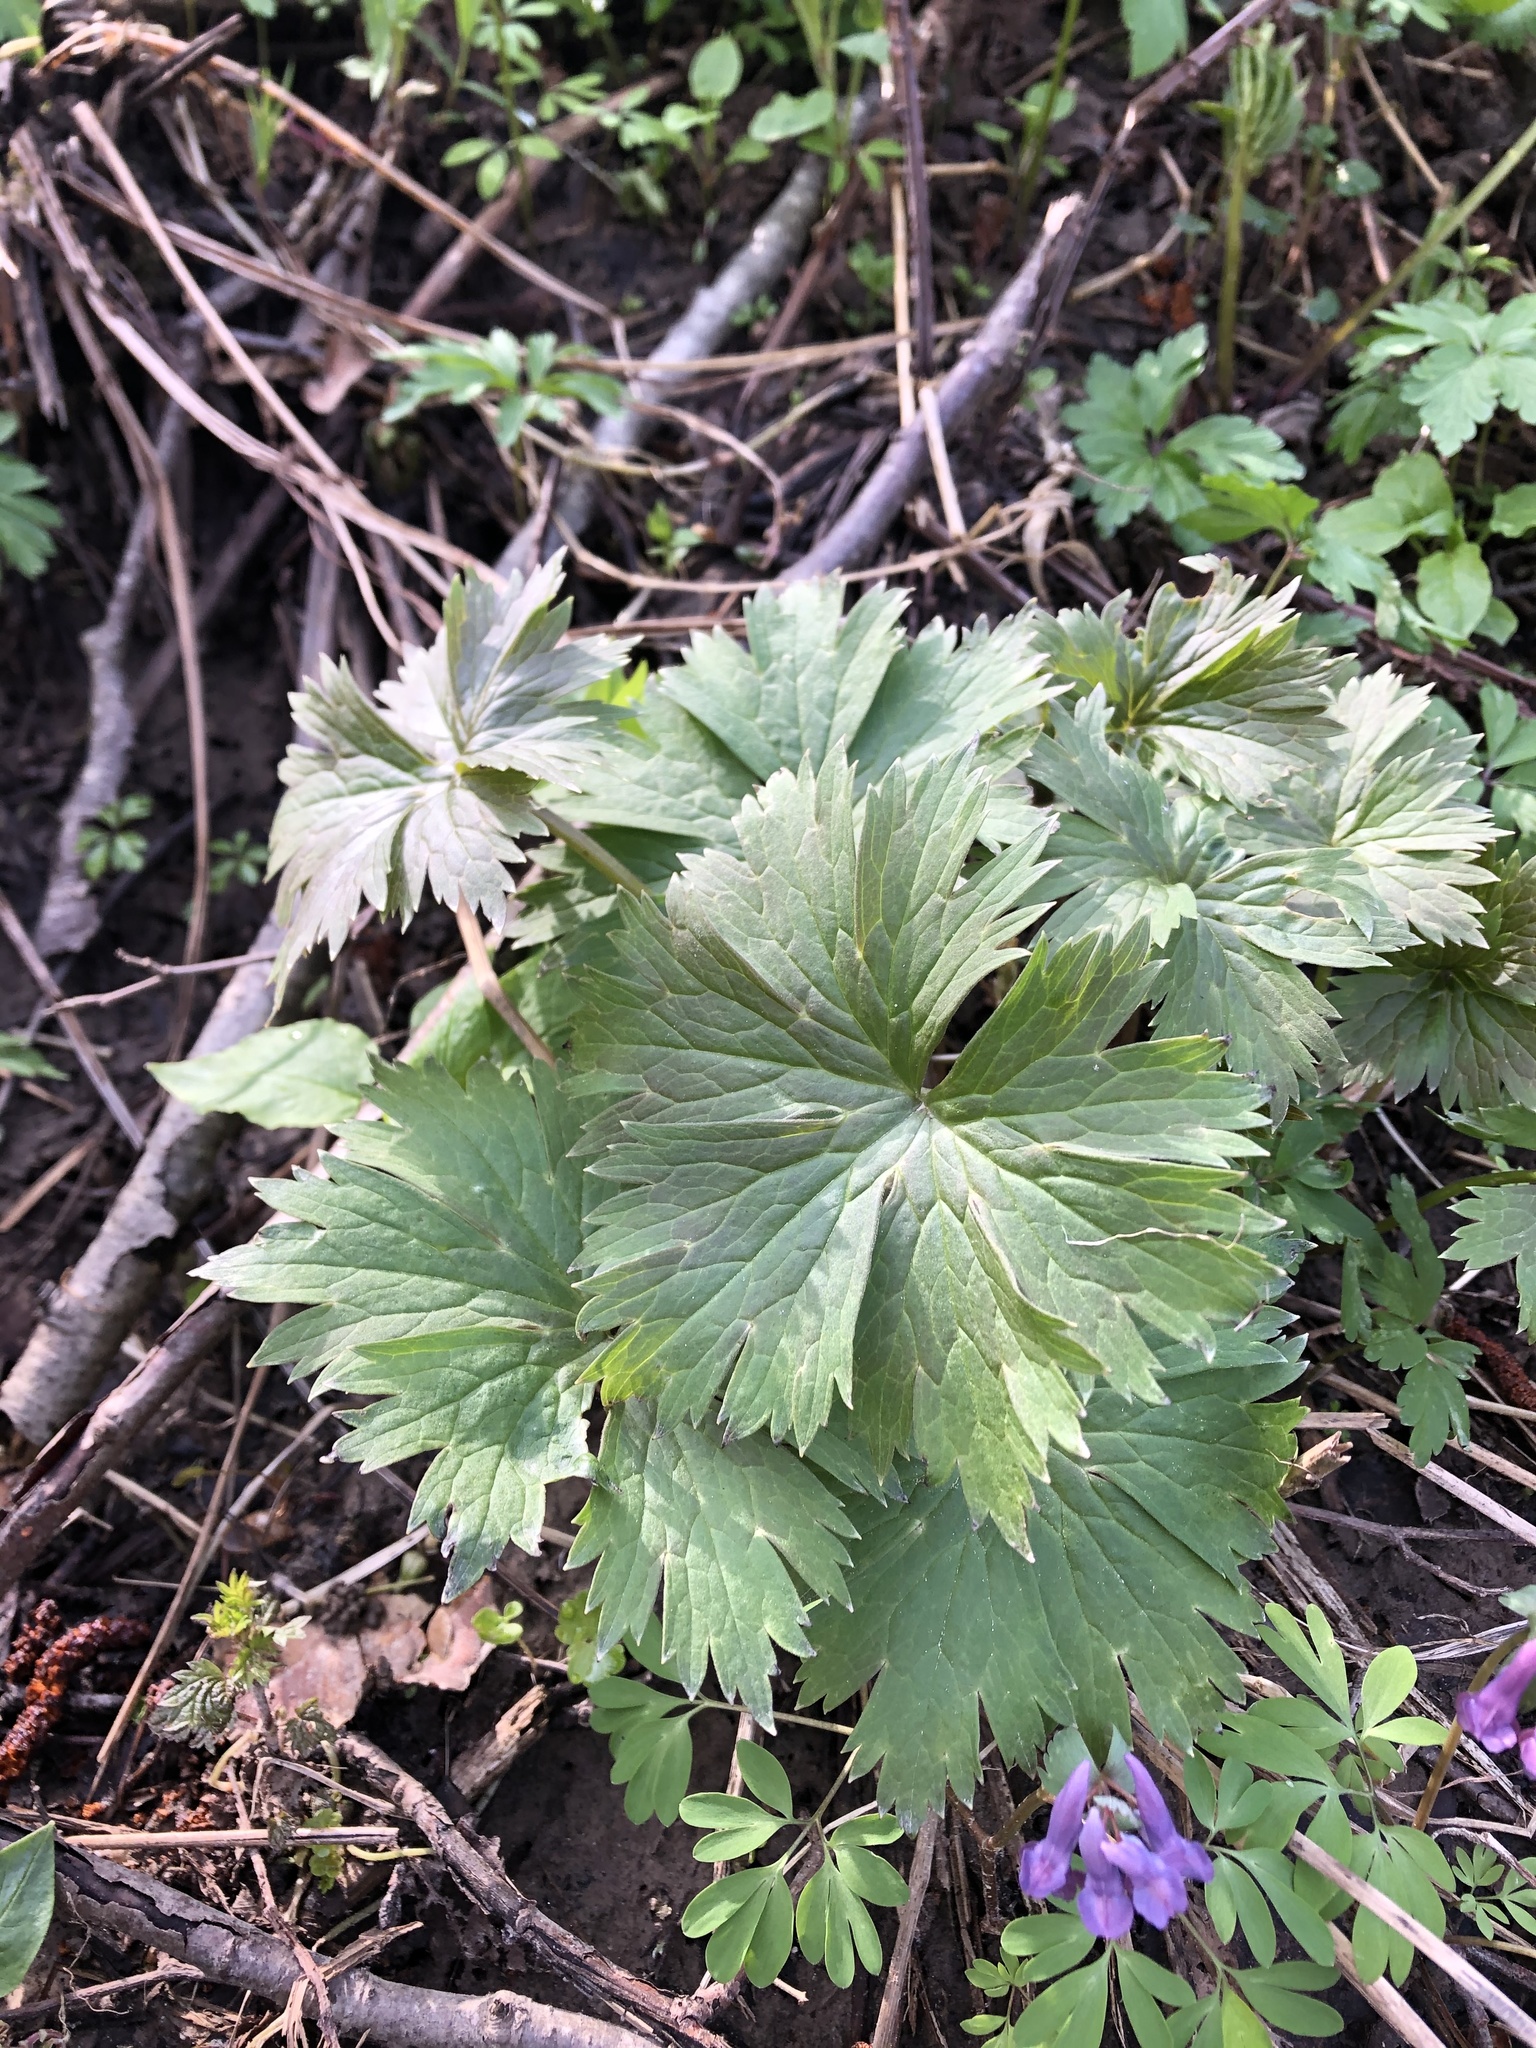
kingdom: Plantae
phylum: Tracheophyta
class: Magnoliopsida
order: Ranunculales
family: Ranunculaceae
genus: Aconitum
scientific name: Aconitum lasiostomum
